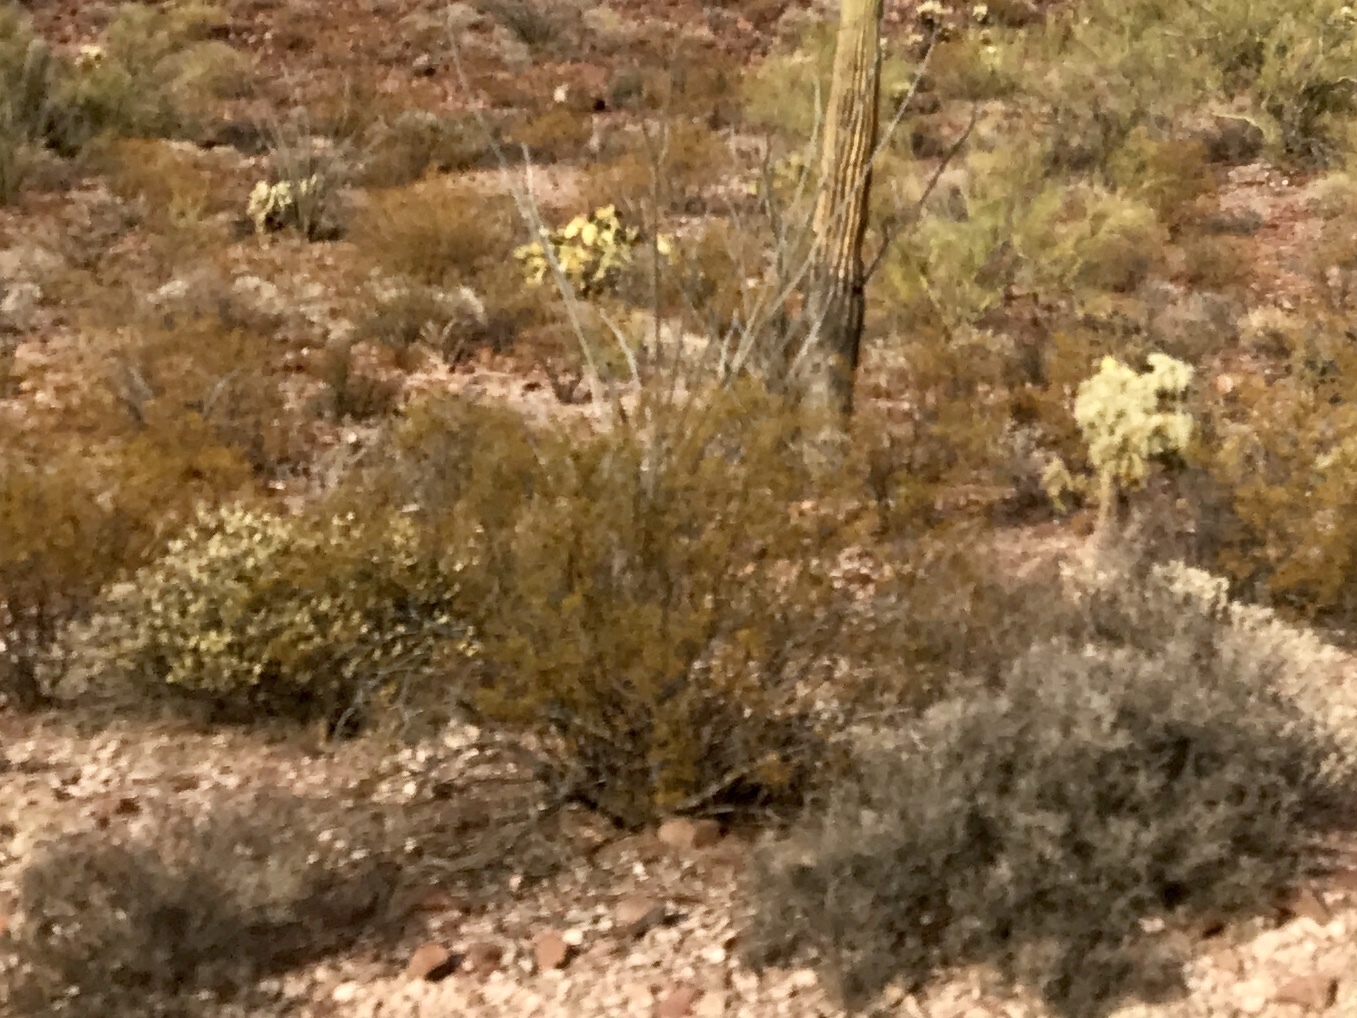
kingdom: Plantae
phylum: Tracheophyta
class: Magnoliopsida
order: Zygophyllales
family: Zygophyllaceae
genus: Larrea
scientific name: Larrea tridentata
